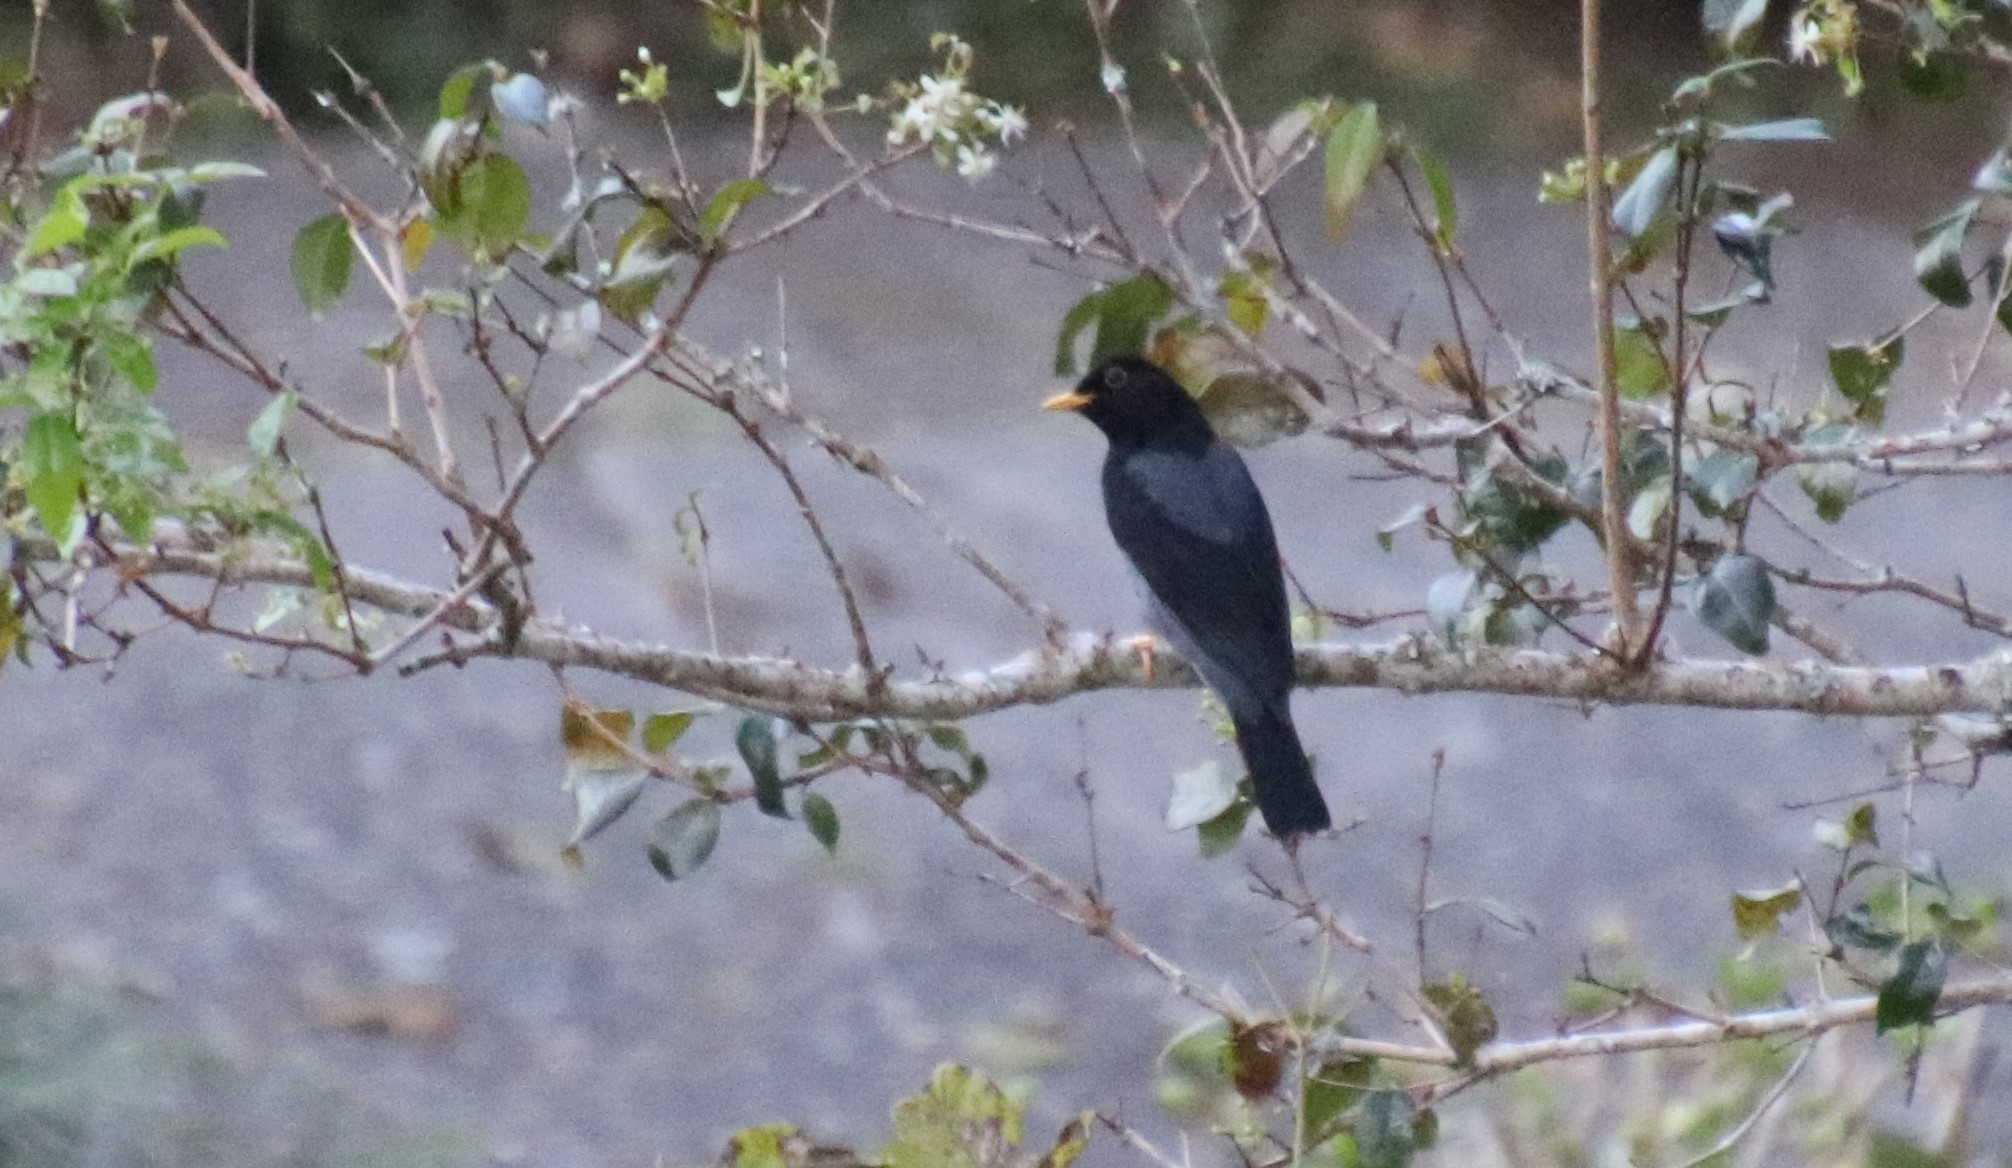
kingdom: Animalia
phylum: Chordata
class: Aves
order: Passeriformes
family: Turdidae
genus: Turdus
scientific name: Turdus flavipes
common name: Yellow-legged thrush
